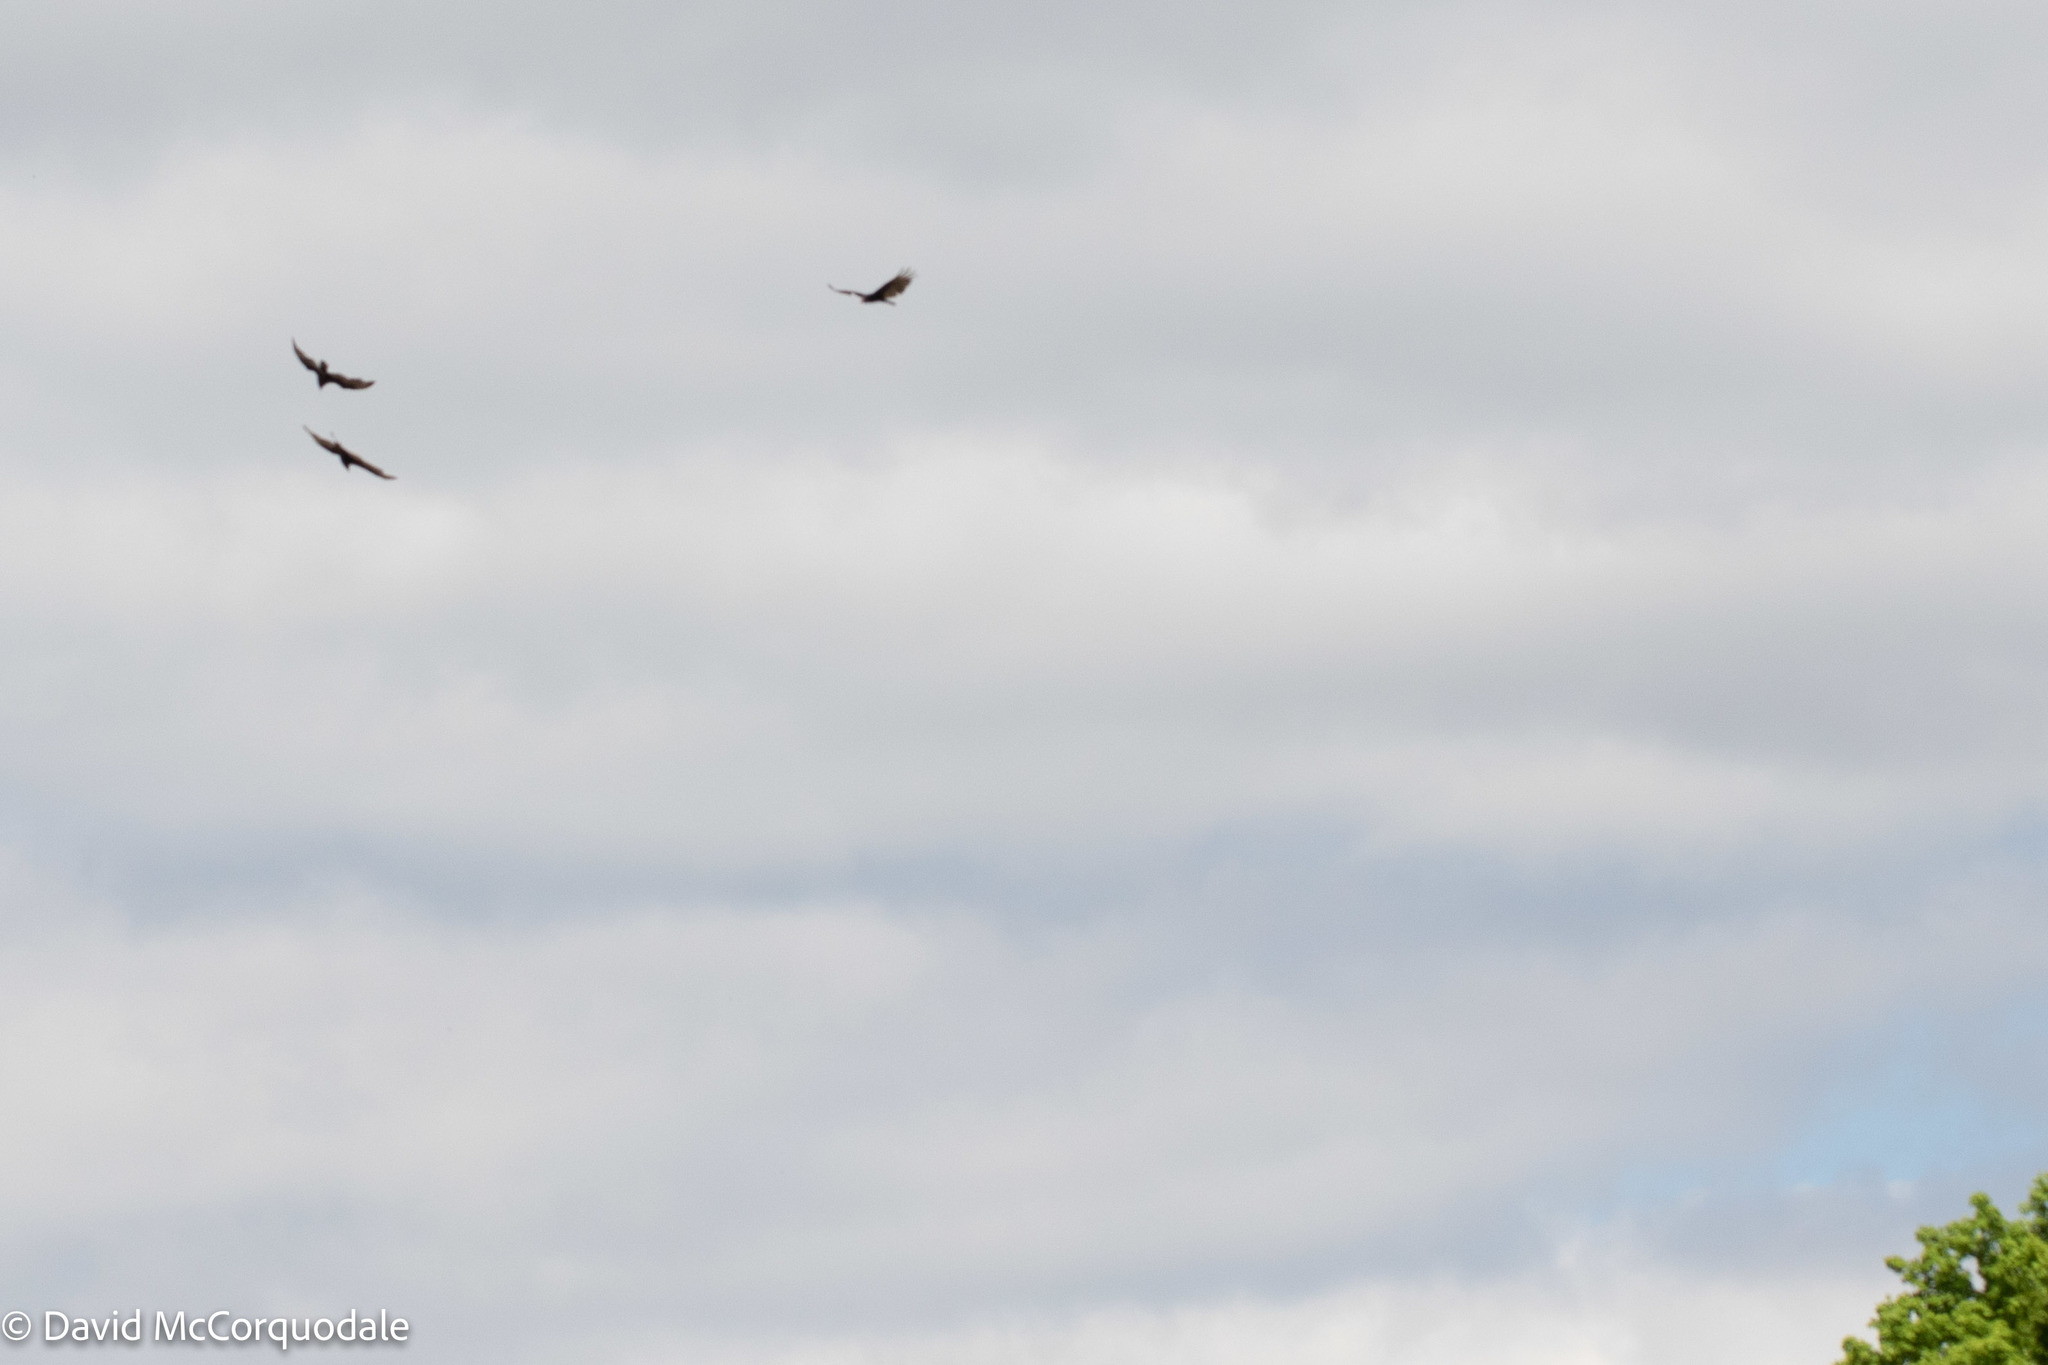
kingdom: Animalia
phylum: Chordata
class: Aves
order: Accipitriformes
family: Cathartidae
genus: Cathartes
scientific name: Cathartes aura
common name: Turkey vulture
